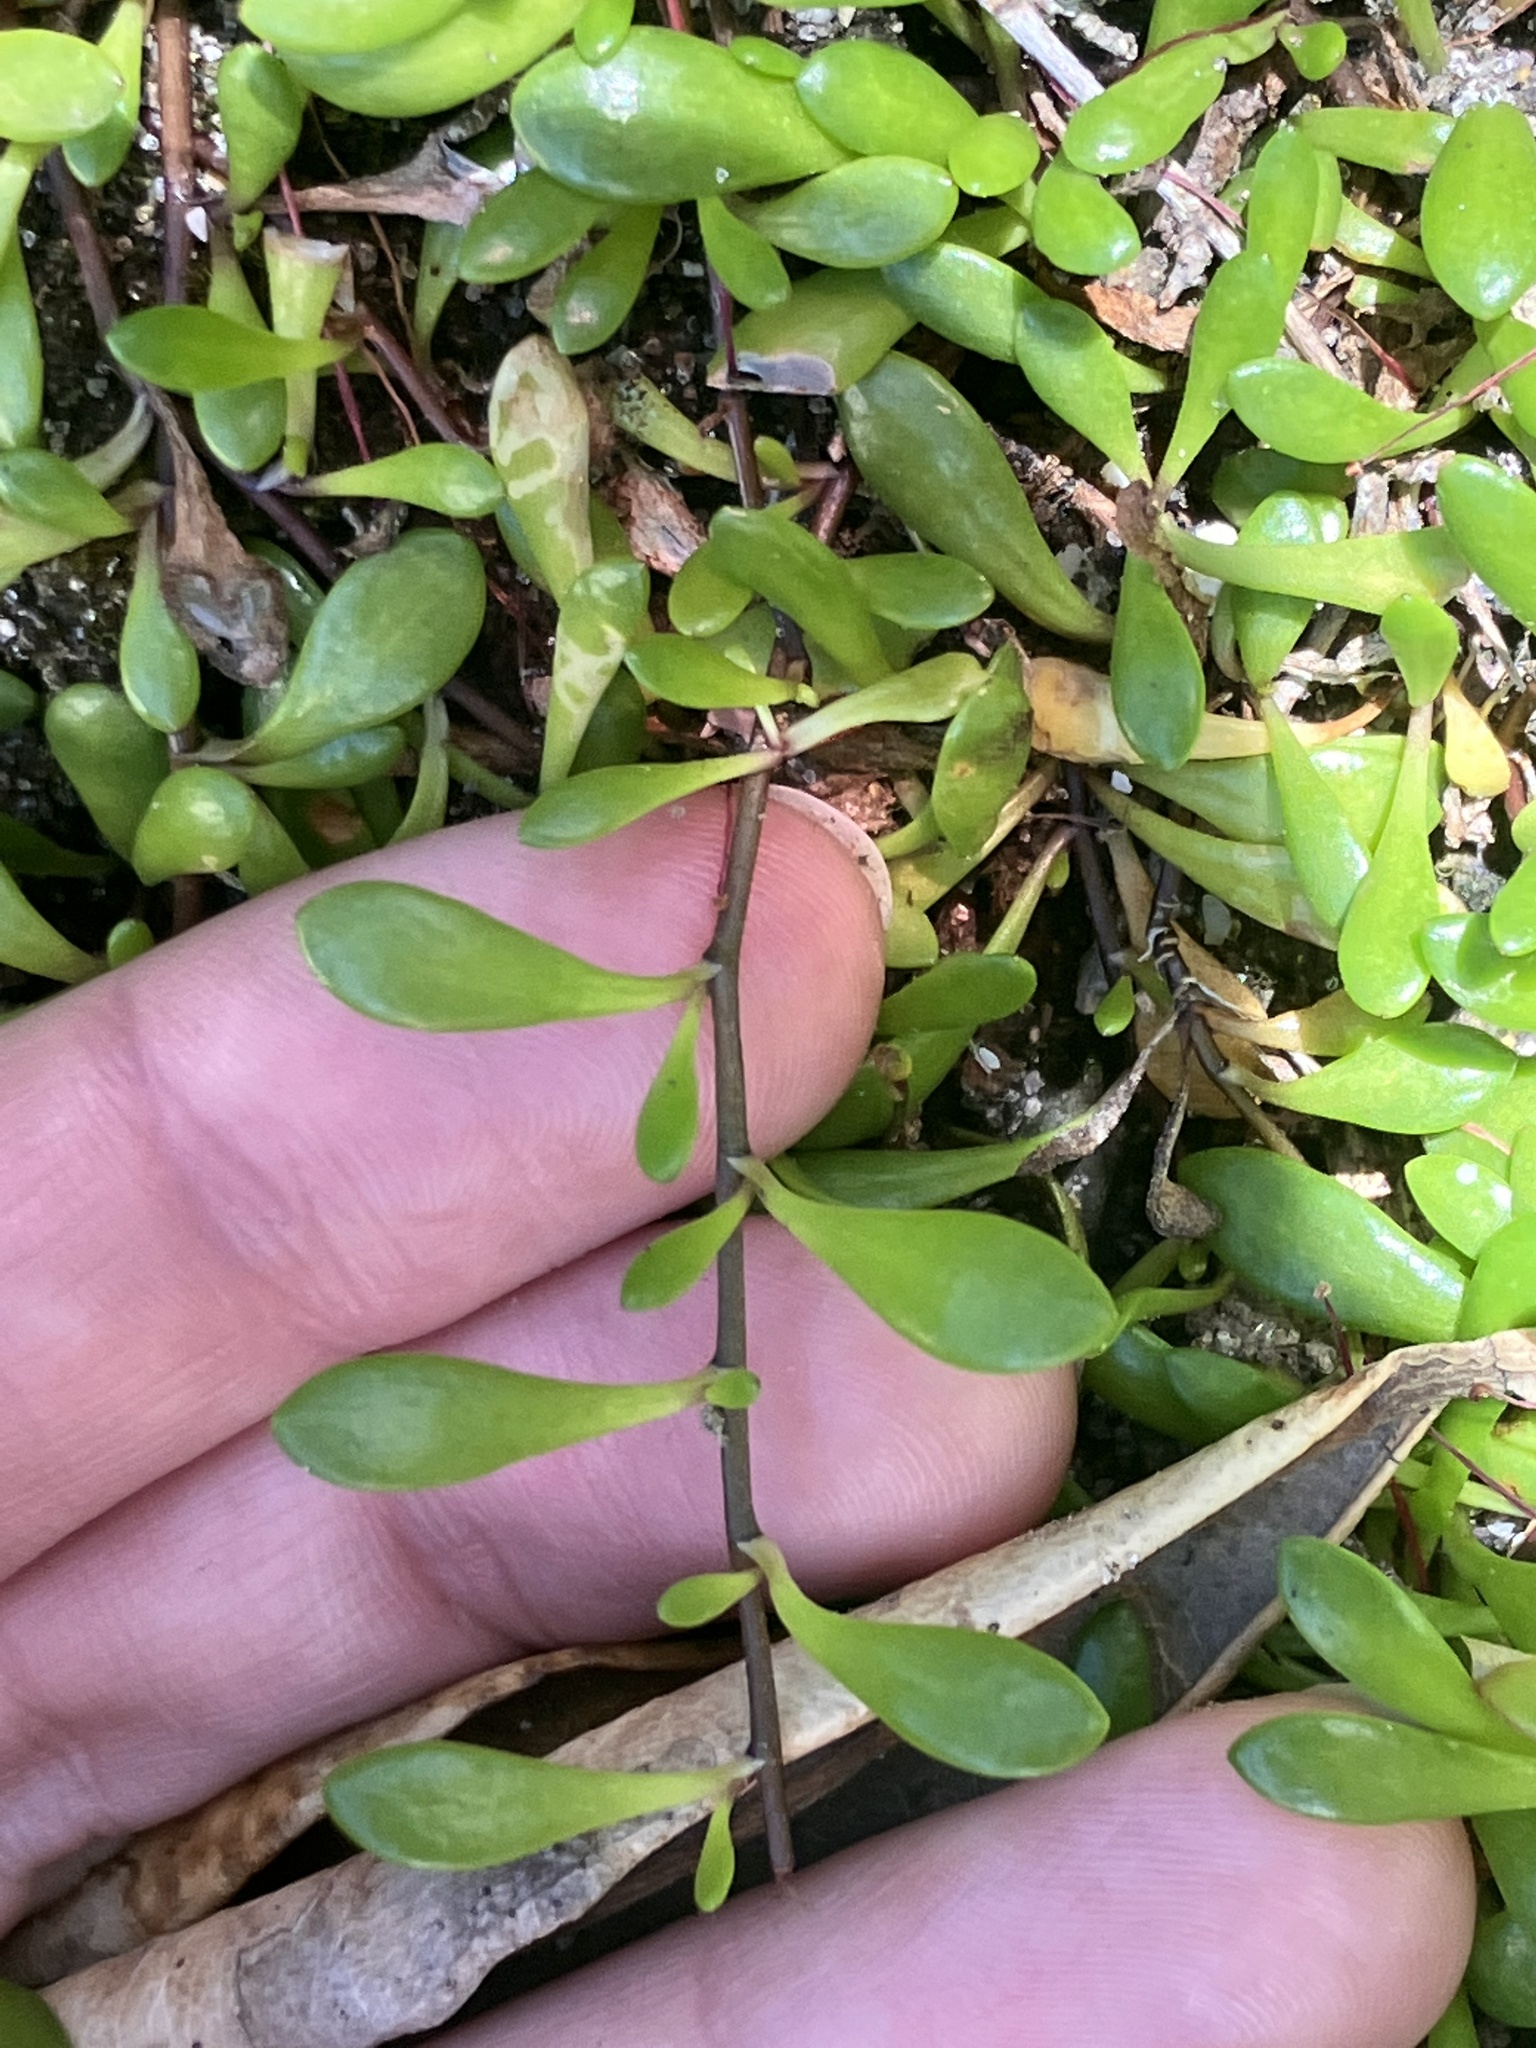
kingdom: Plantae
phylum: Tracheophyta
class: Magnoliopsida
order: Asterales
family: Goodeniaceae
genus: Goodenia
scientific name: Goodenia radicans
